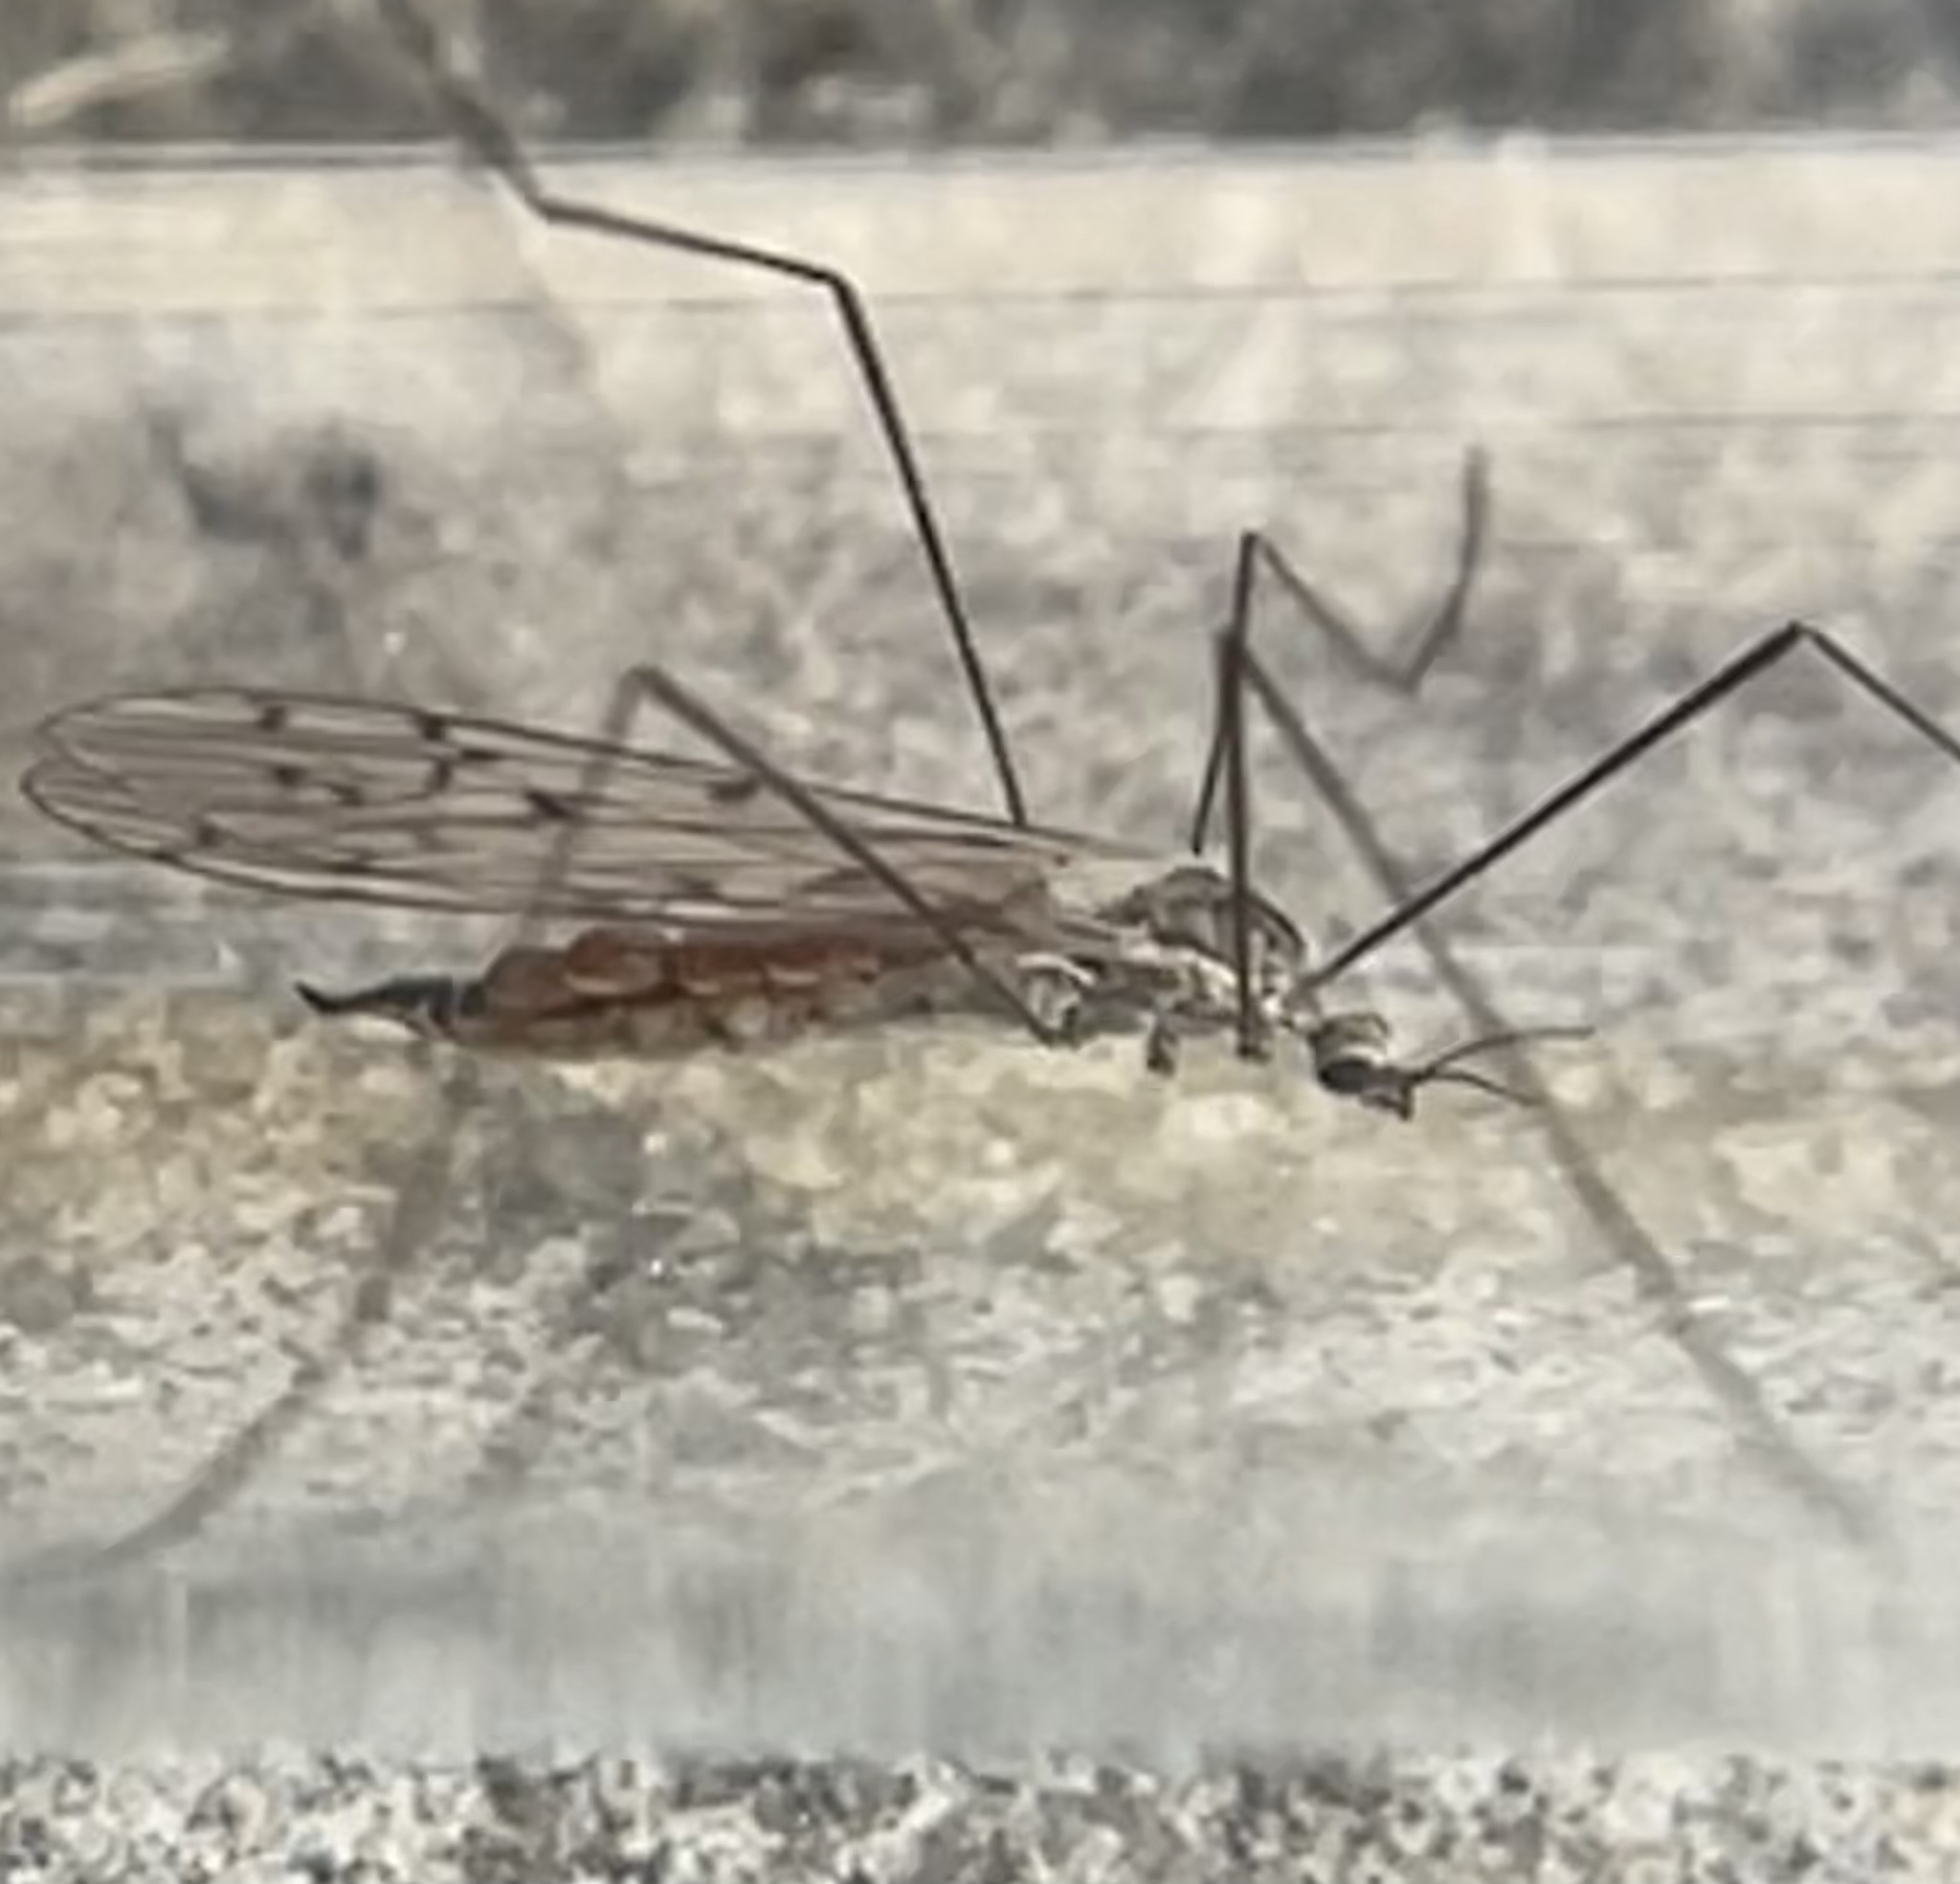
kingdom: Animalia
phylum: Arthropoda
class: Insecta
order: Diptera
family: Limoniidae
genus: Symplecta
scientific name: Symplecta cana
